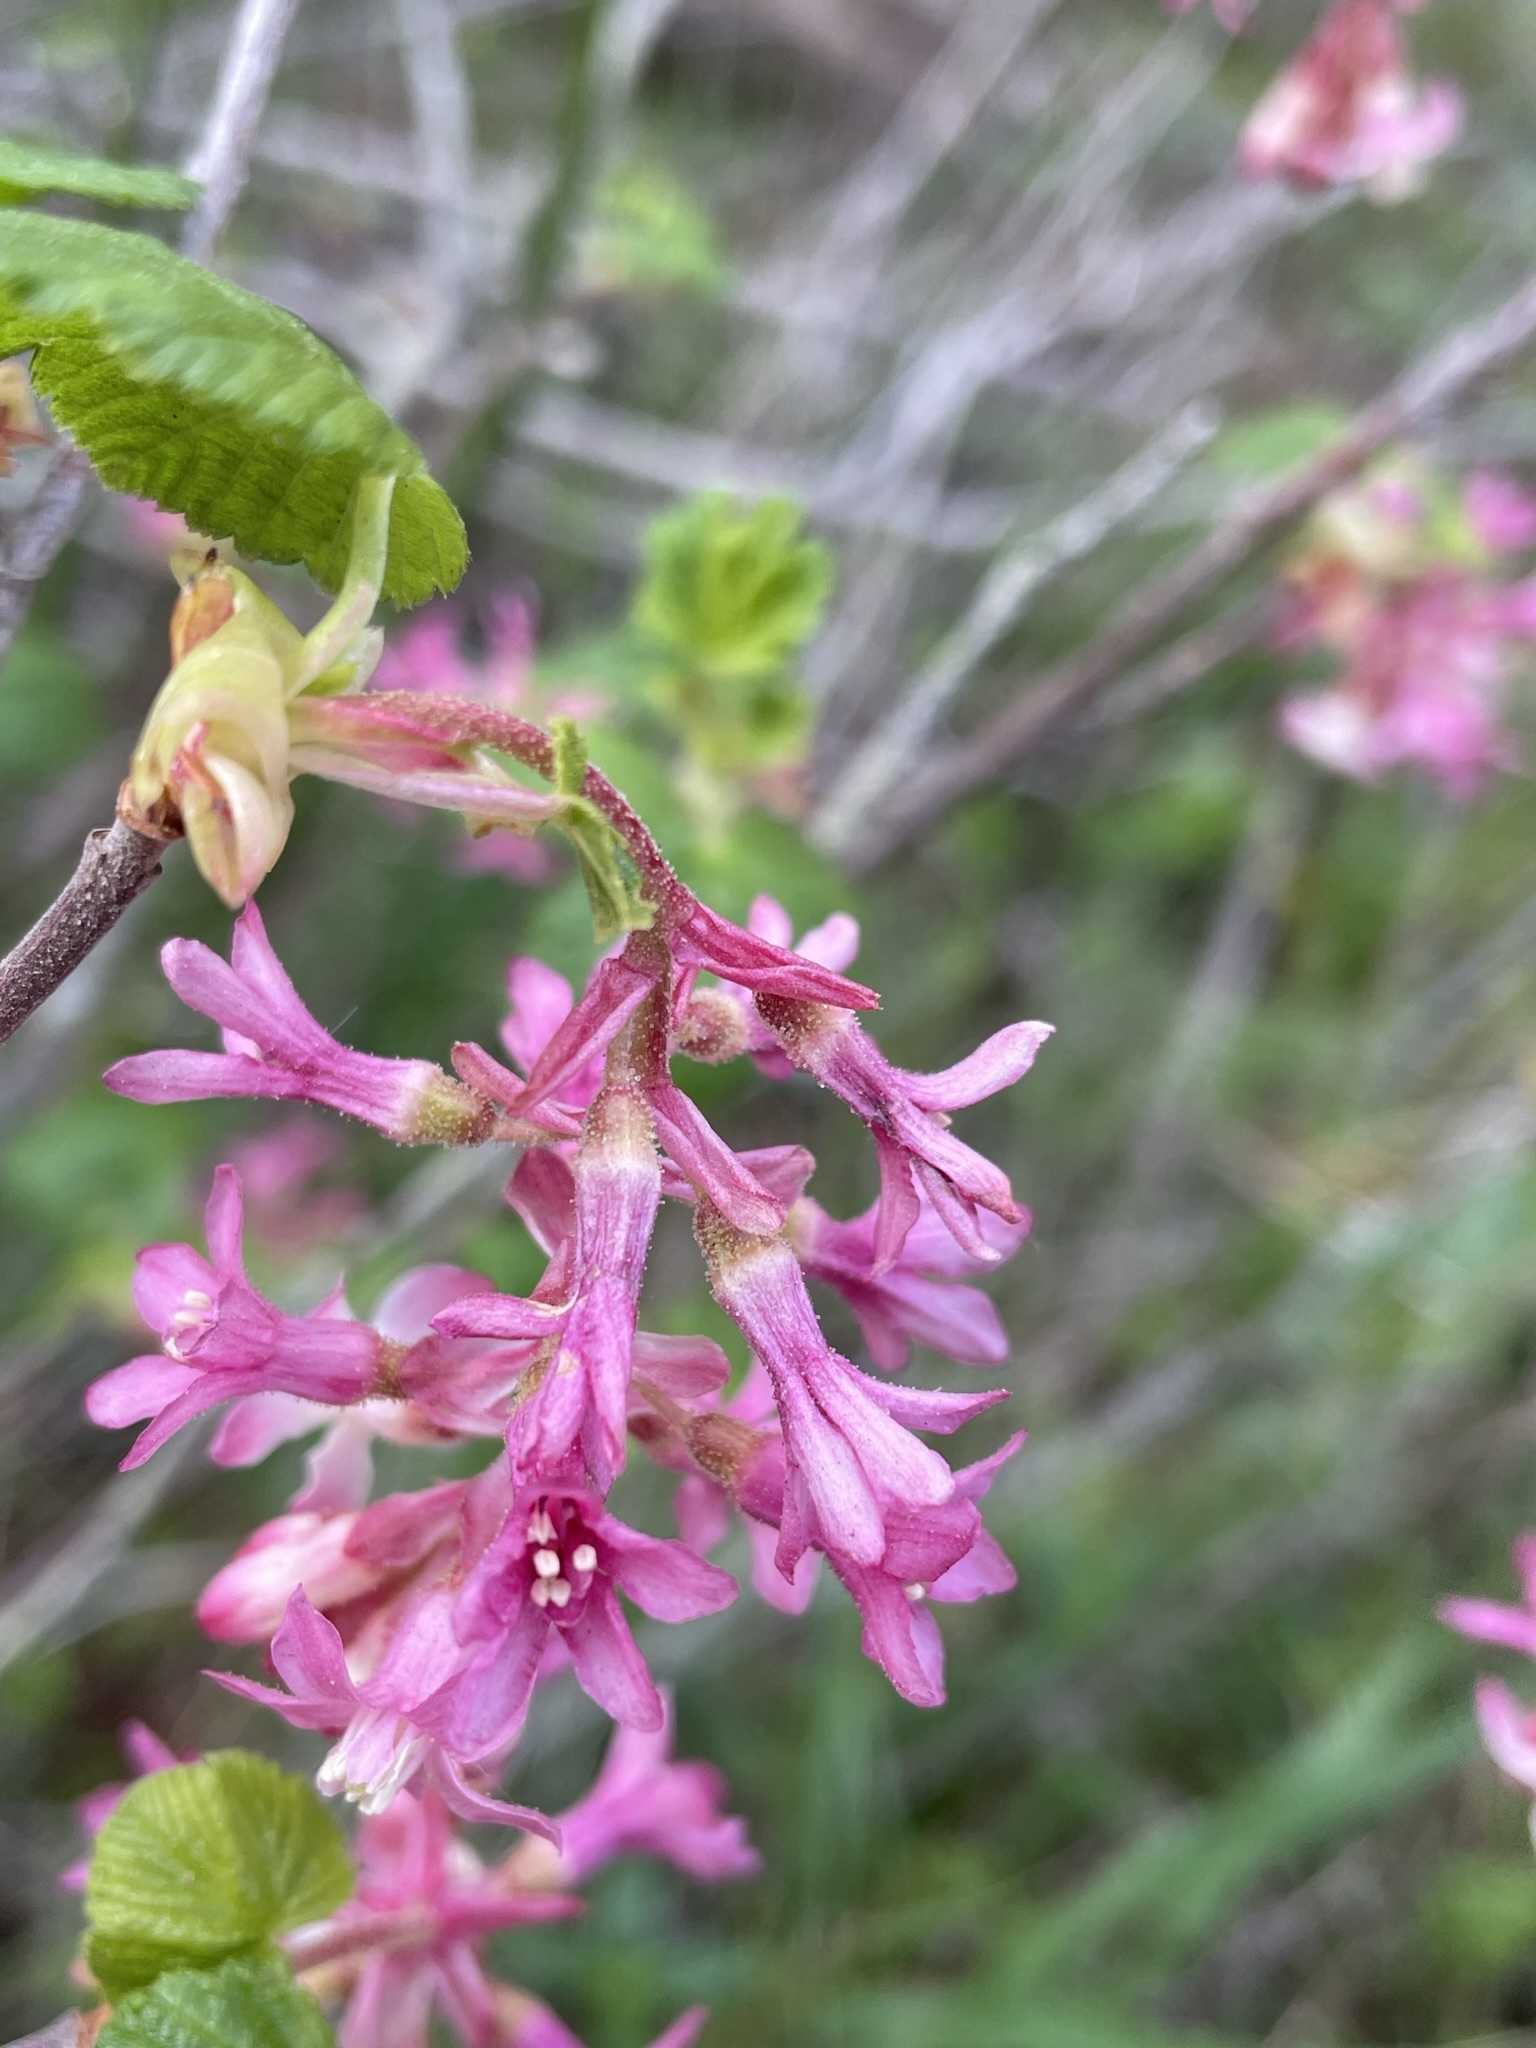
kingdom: Plantae
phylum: Tracheophyta
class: Magnoliopsida
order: Saxifragales
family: Grossulariaceae
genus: Ribes
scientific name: Ribes sanguineum
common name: Flowering currant
